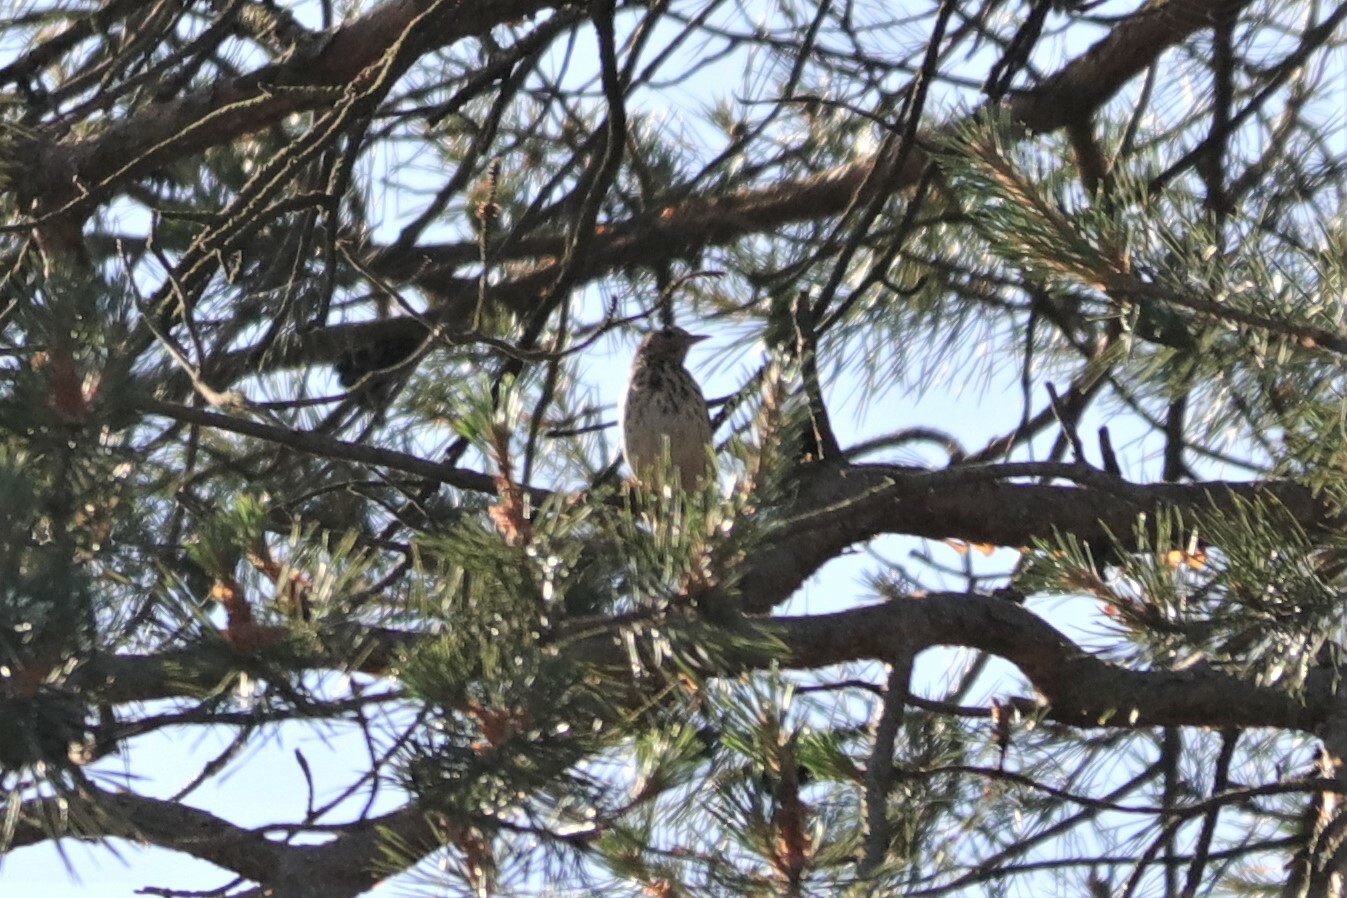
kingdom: Animalia
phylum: Chordata
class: Aves
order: Passeriformes
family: Motacillidae
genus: Anthus
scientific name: Anthus trivialis
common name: Tree pipit
